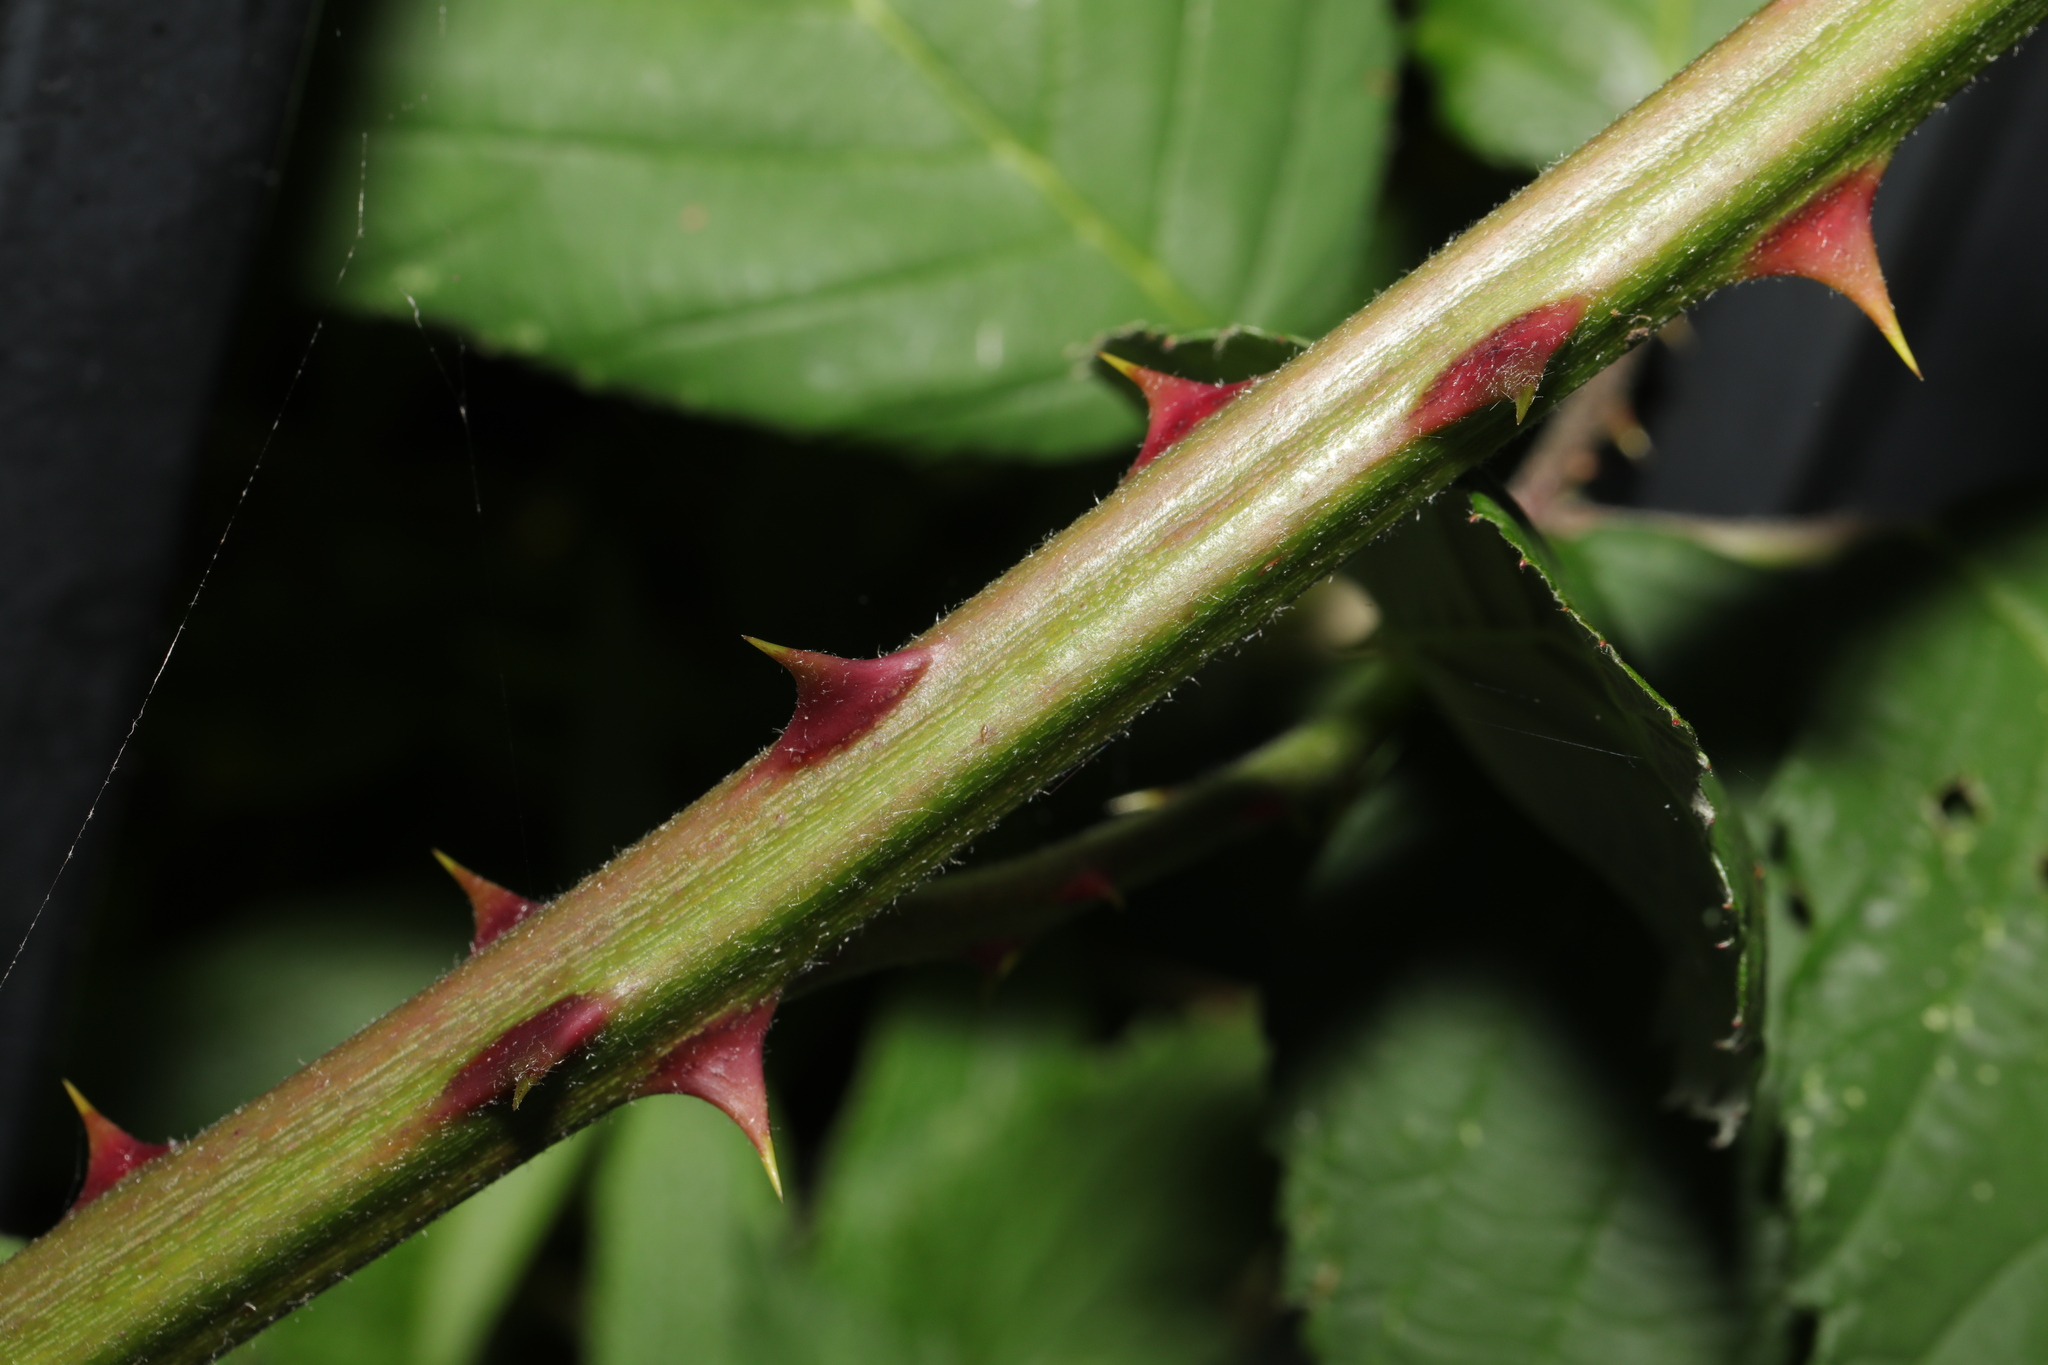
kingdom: Plantae
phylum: Tracheophyta
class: Magnoliopsida
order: Rosales
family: Rosaceae
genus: Rubus
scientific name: Rubus armeniacus
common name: Himalayan blackberry
